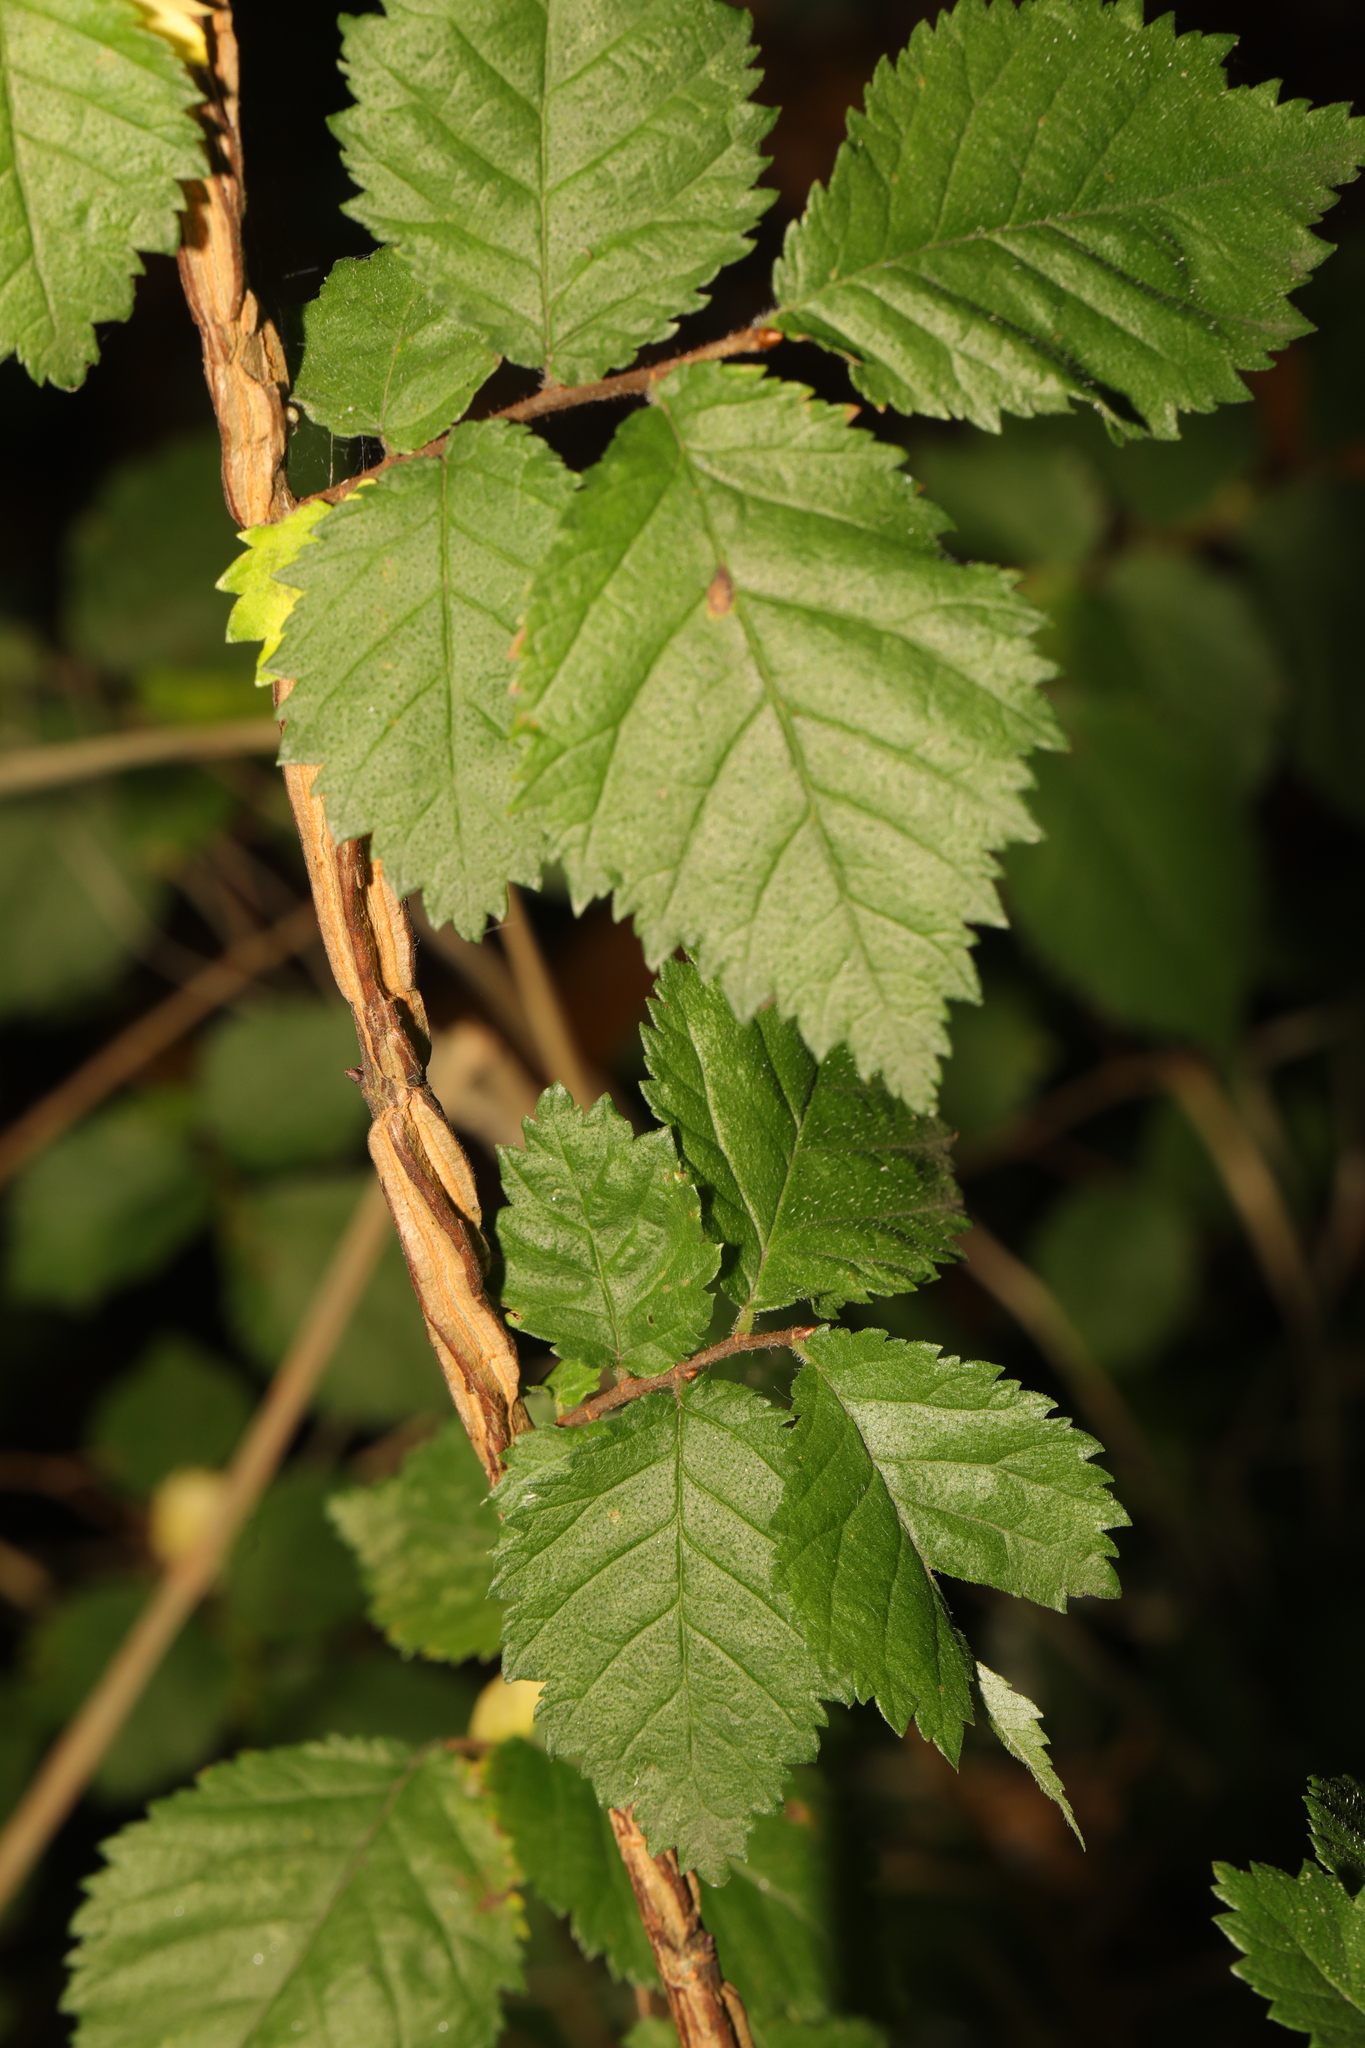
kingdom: Plantae
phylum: Tracheophyta
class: Magnoliopsida
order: Rosales
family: Ulmaceae
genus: Ulmus
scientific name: Ulmus minor
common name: Small-leaved elm
